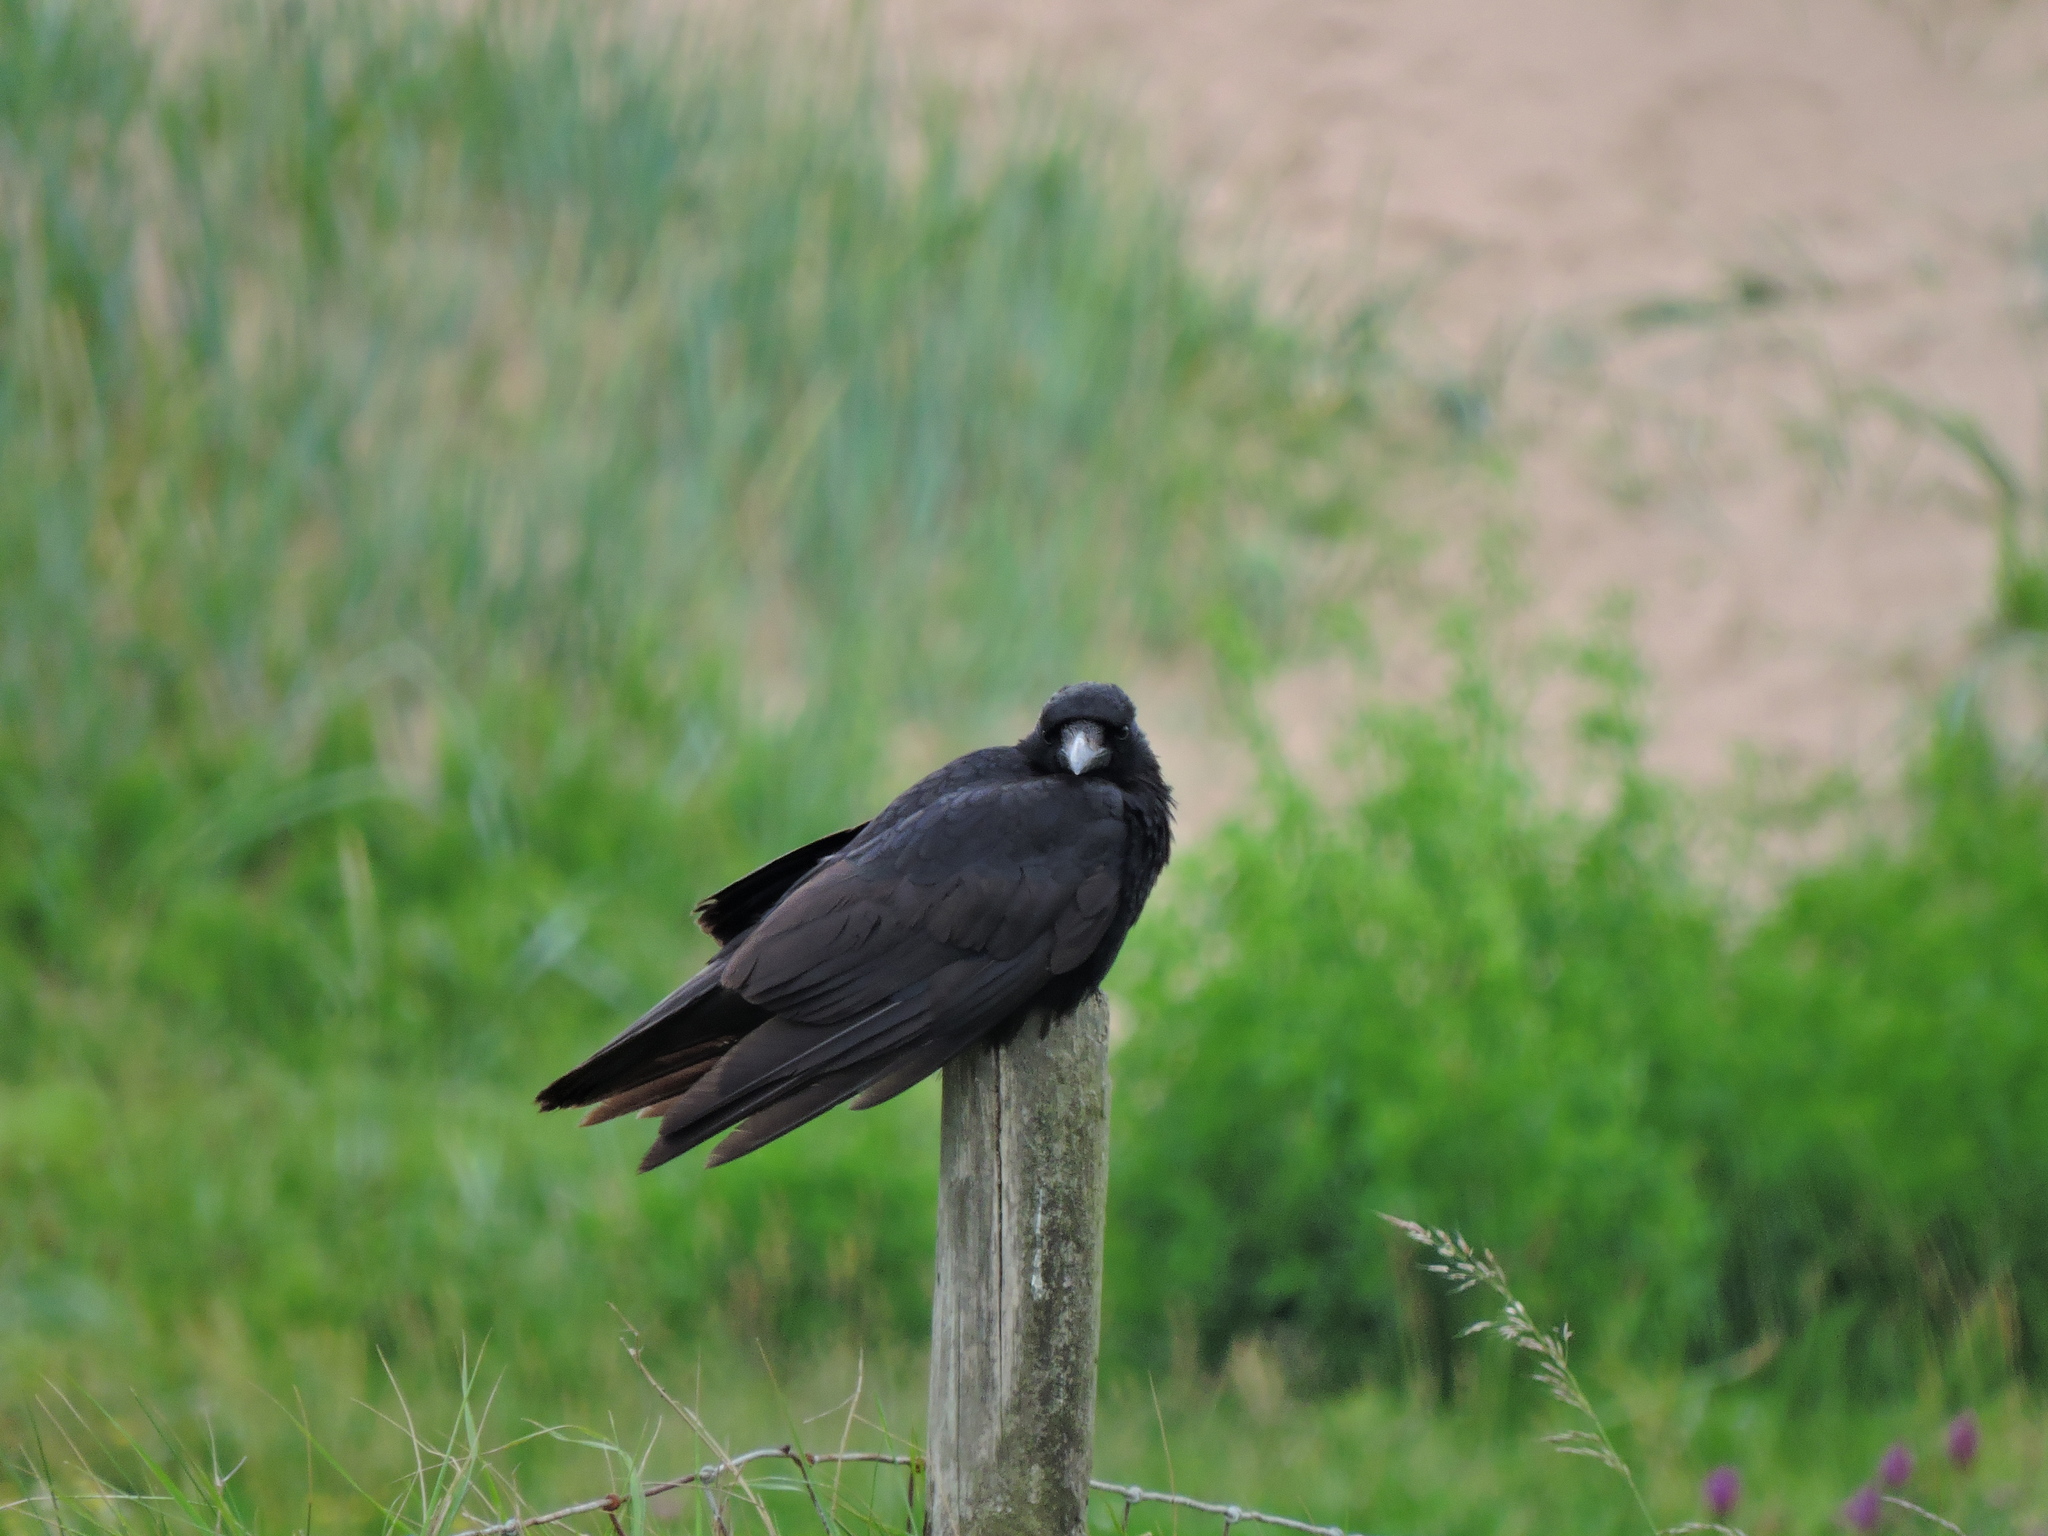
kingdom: Animalia
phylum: Chordata
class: Aves
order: Passeriformes
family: Corvidae
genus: Corvus
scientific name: Corvus corone
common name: Carrion crow
